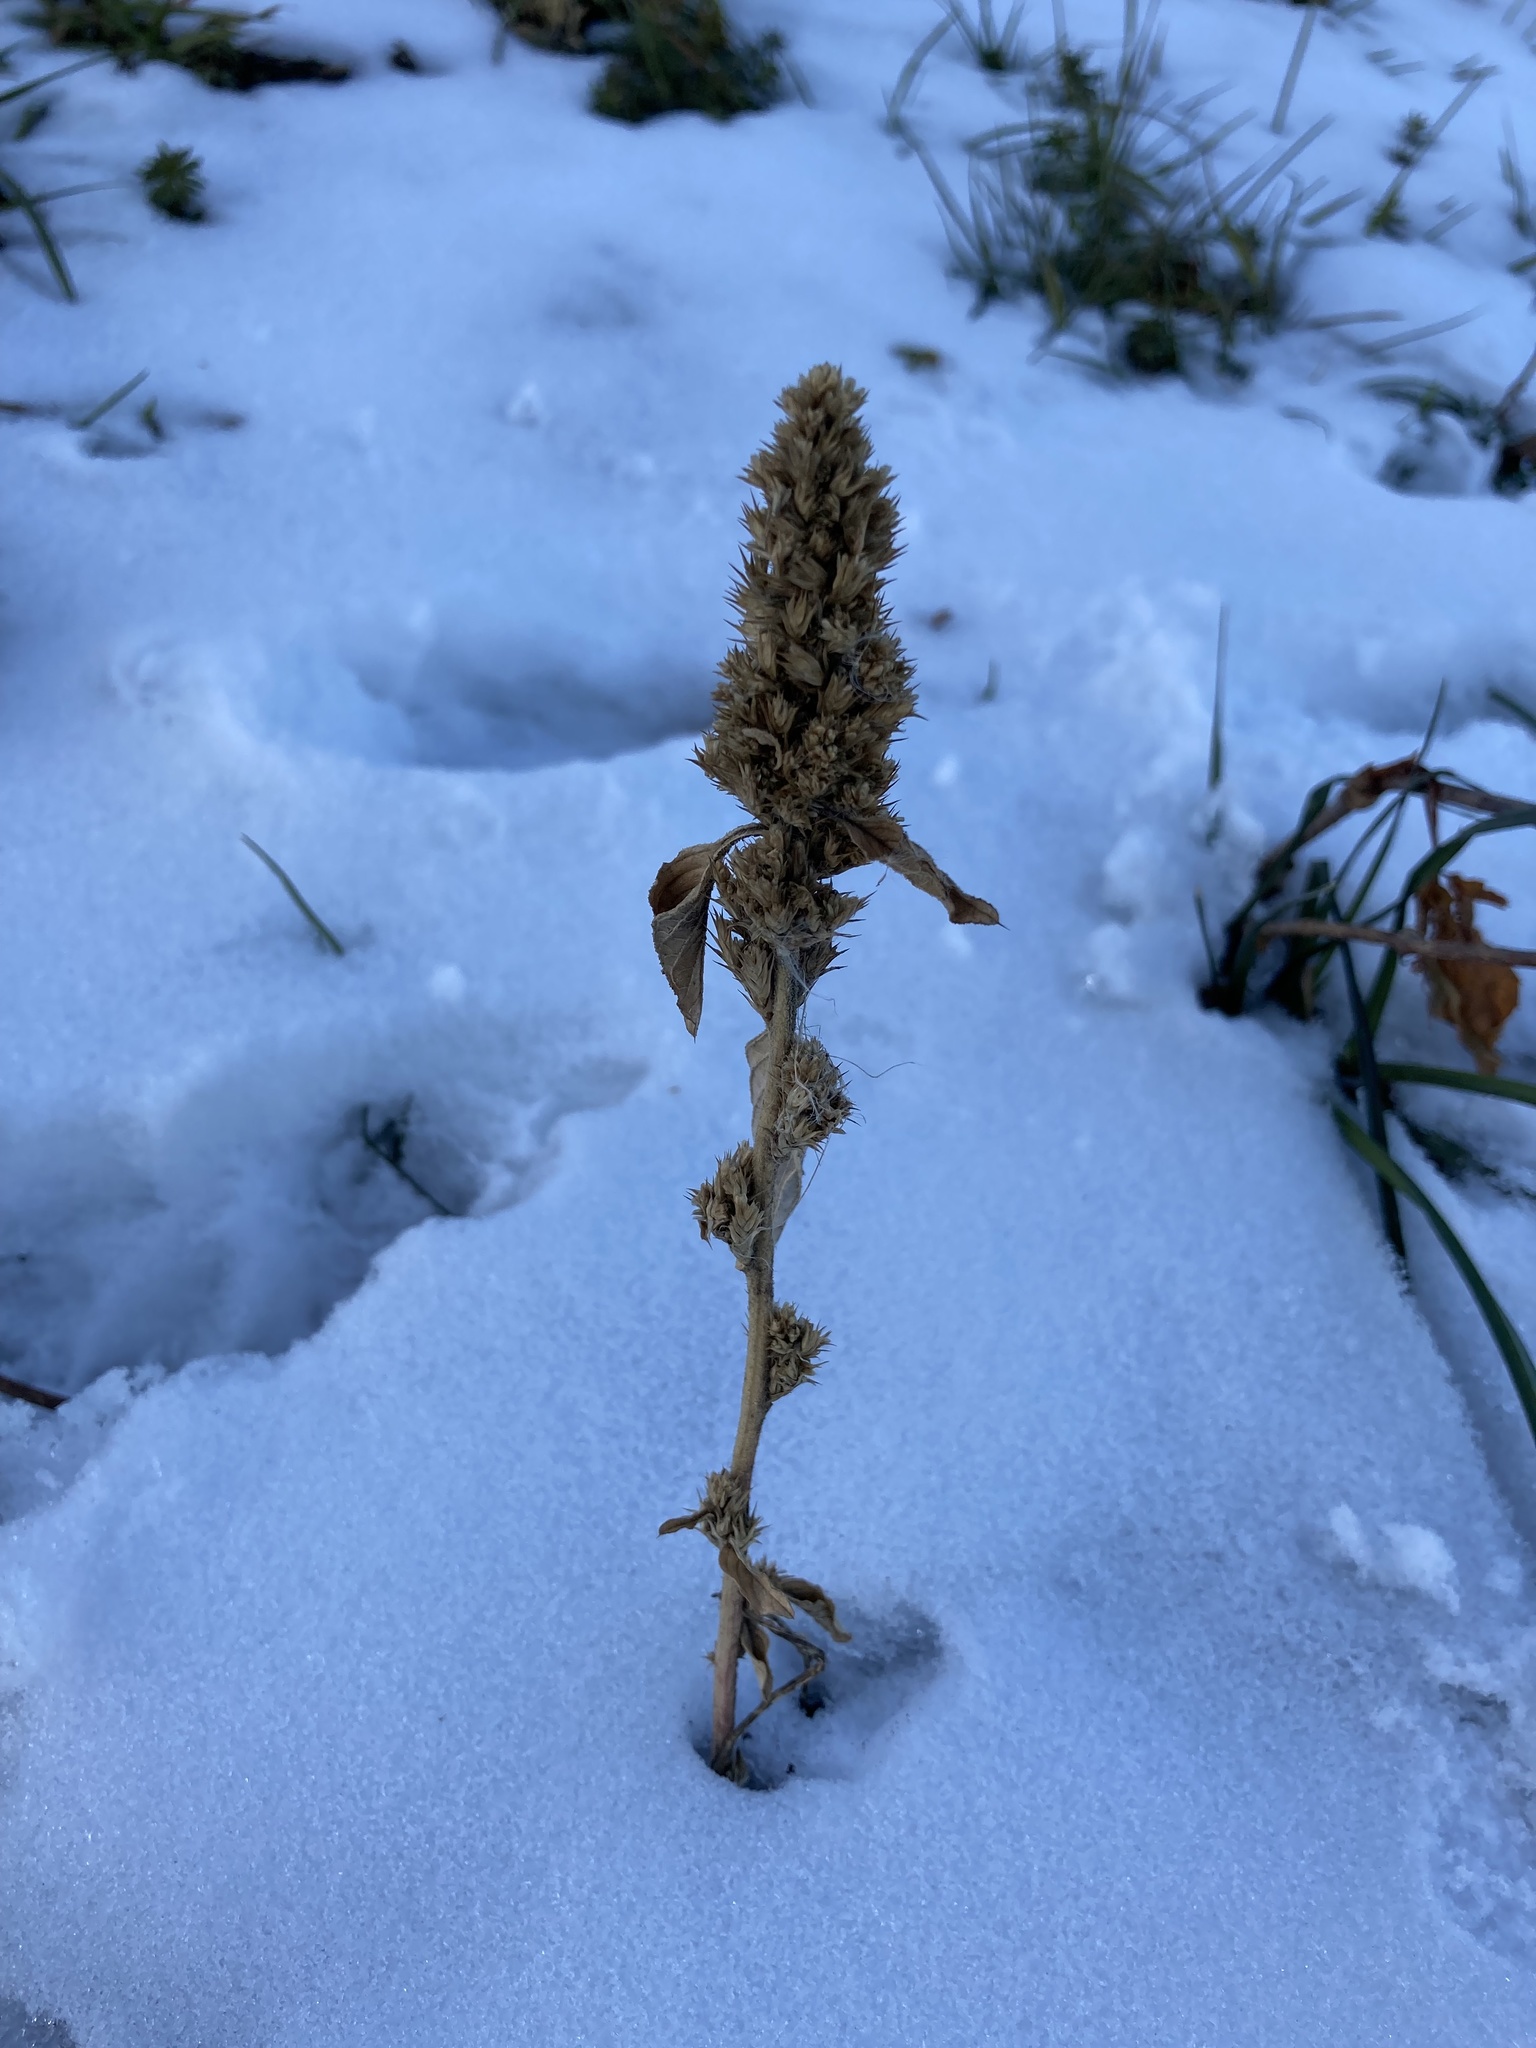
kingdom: Plantae
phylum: Tracheophyta
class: Magnoliopsida
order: Caryophyllales
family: Amaranthaceae
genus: Amaranthus
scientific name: Amaranthus retroflexus
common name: Redroot amaranth
